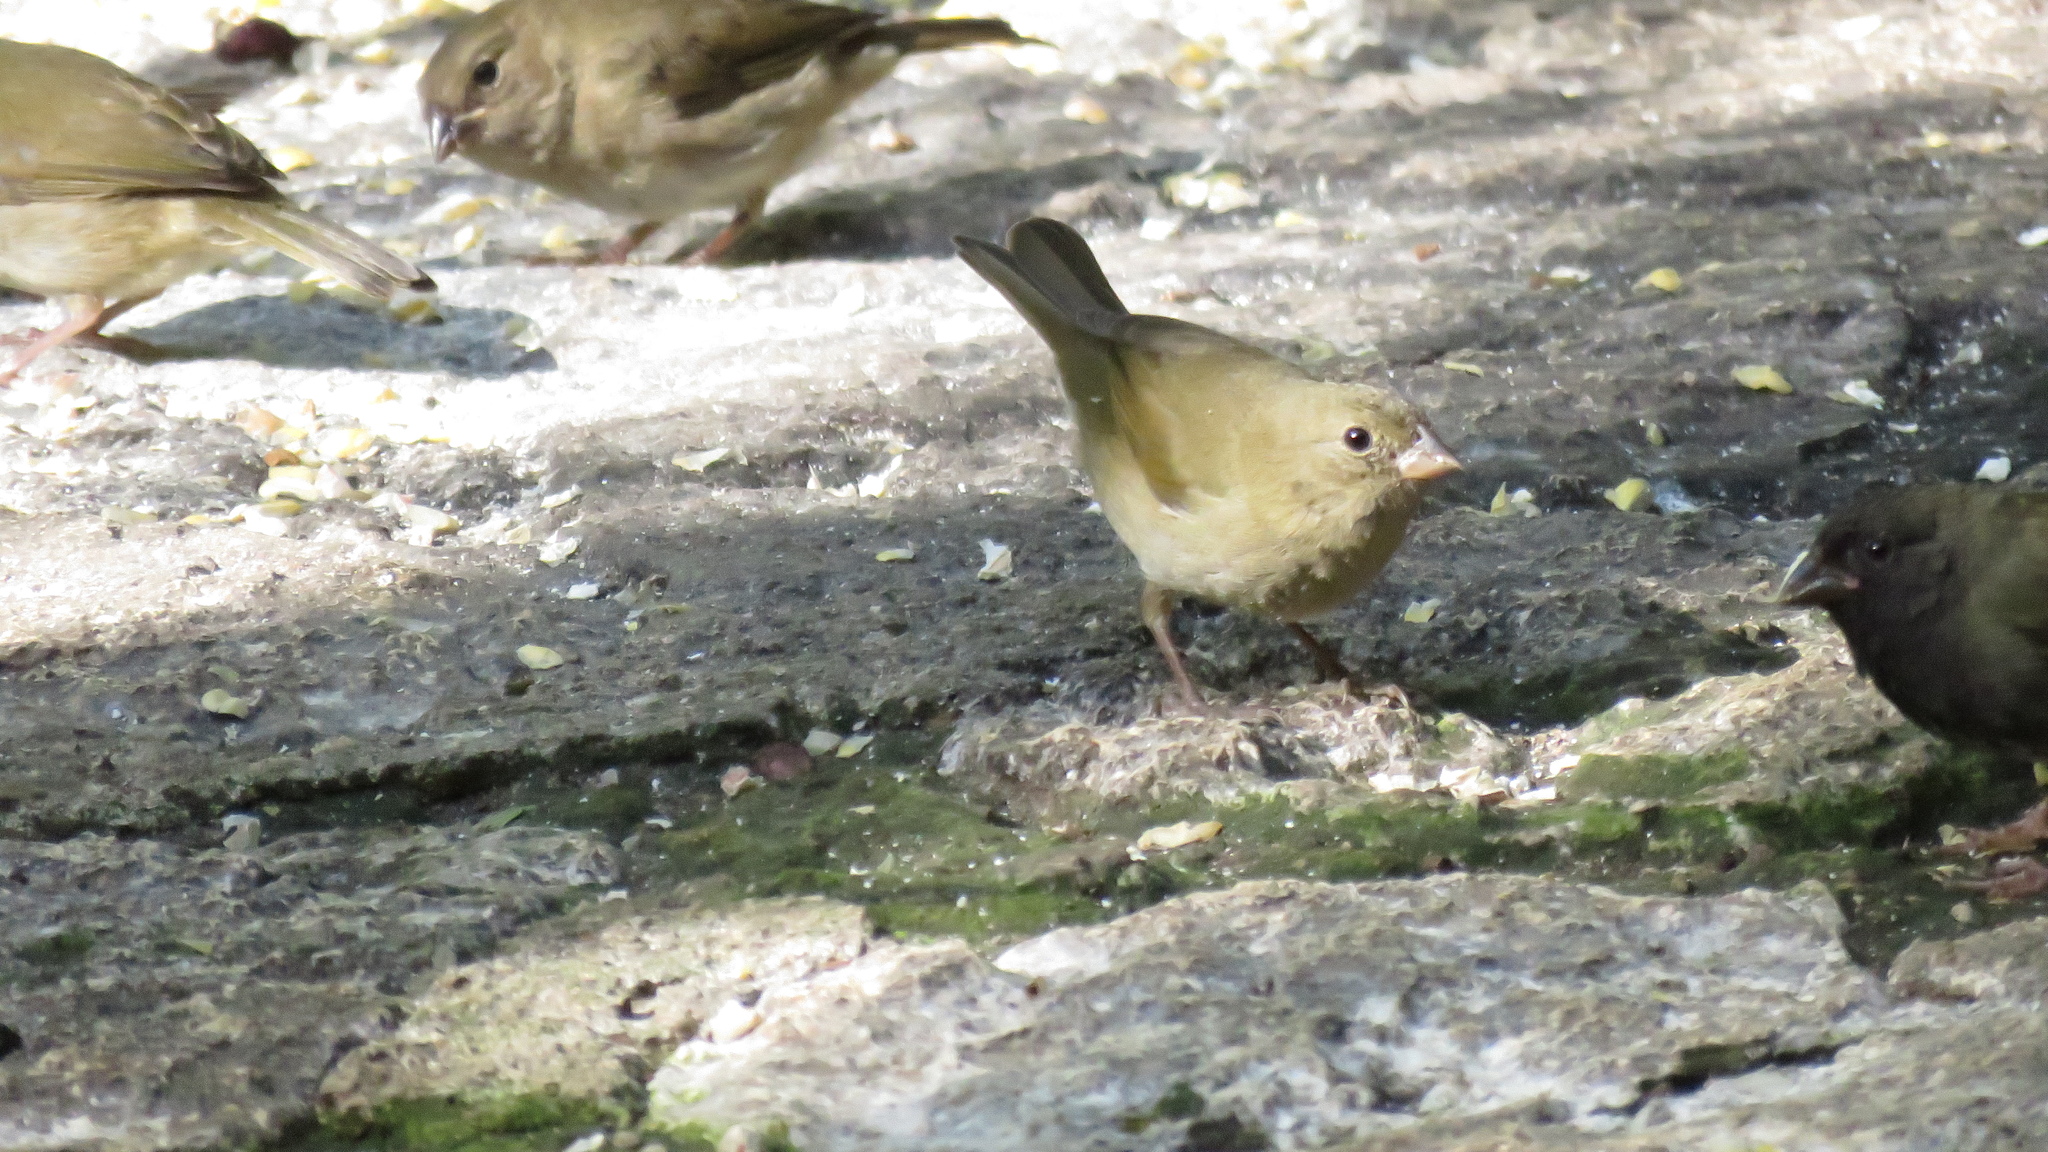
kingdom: Animalia
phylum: Chordata
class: Aves
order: Passeriformes
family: Thraupidae
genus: Melanospiza
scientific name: Melanospiza bicolor
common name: Black-faced grassquit
